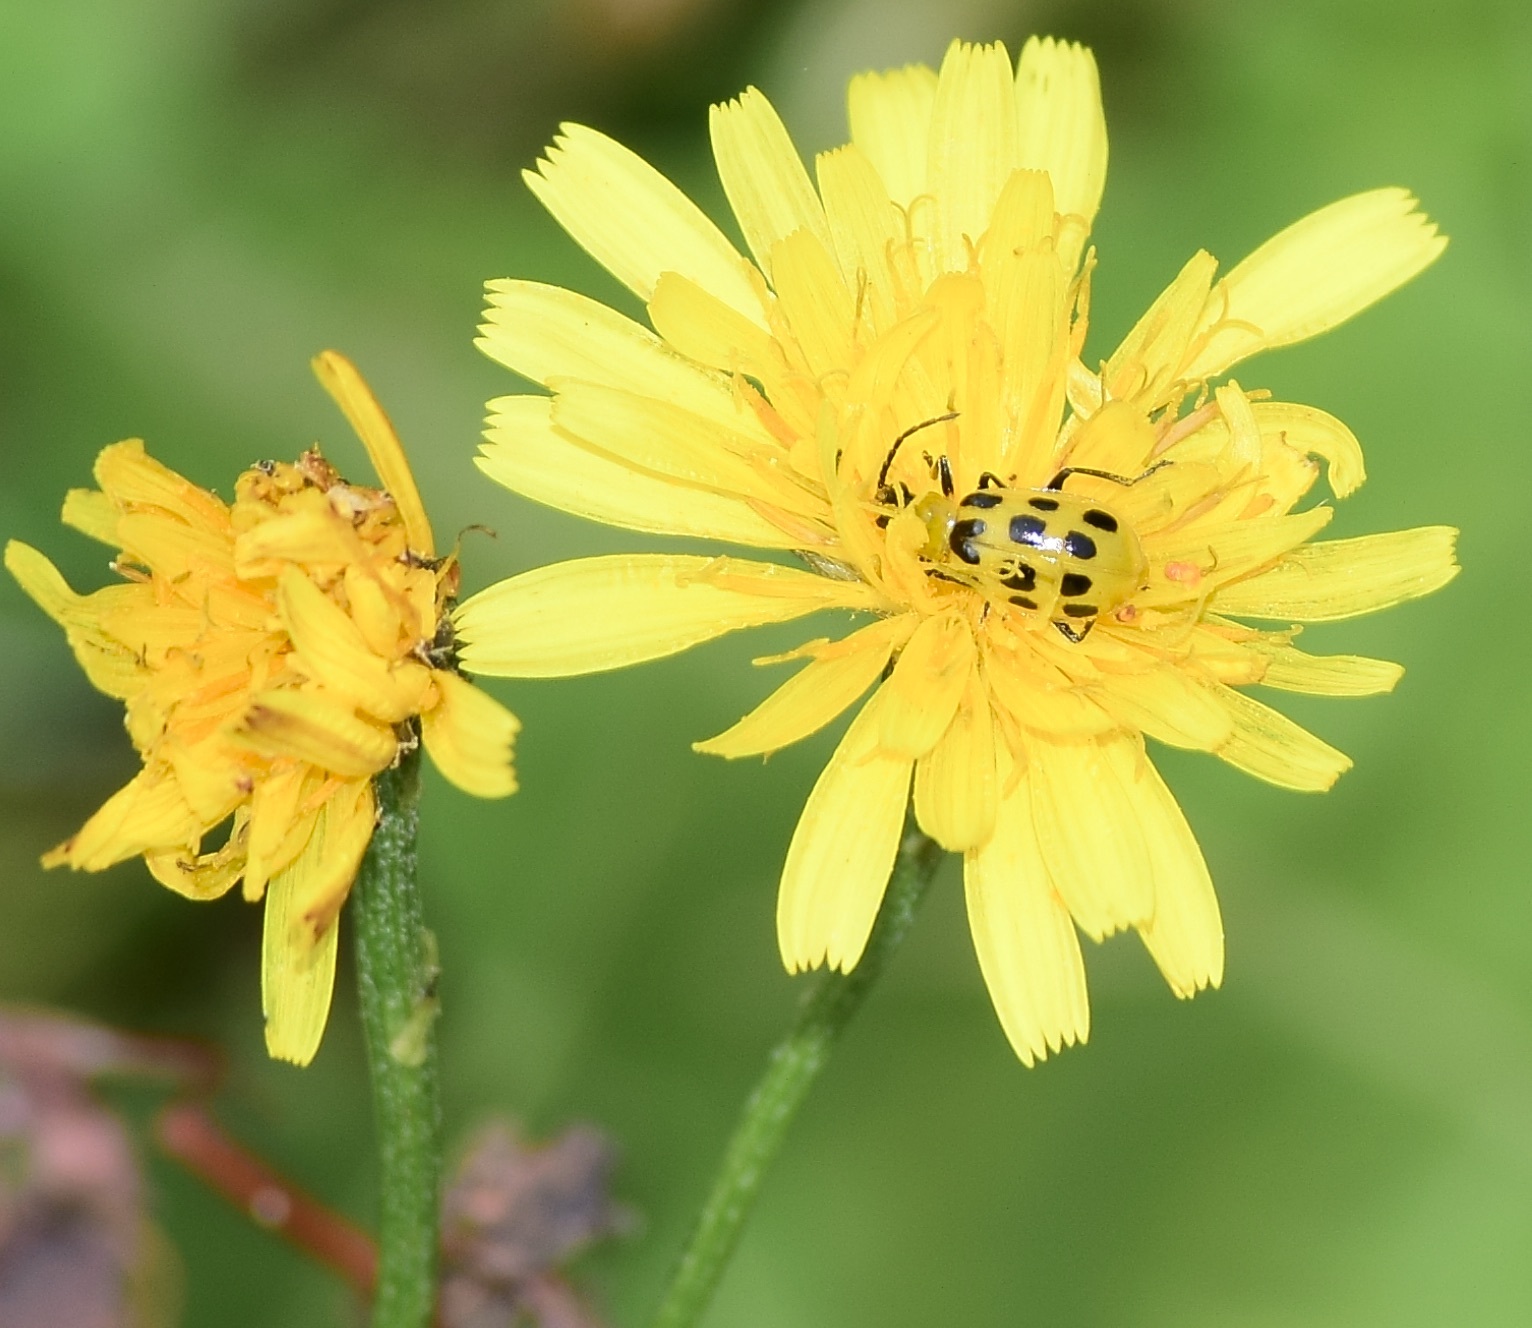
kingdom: Animalia
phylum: Arthropoda
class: Insecta
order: Coleoptera
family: Chrysomelidae
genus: Diabrotica
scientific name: Diabrotica undecimpunctata
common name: Spotted cucumber beetle
